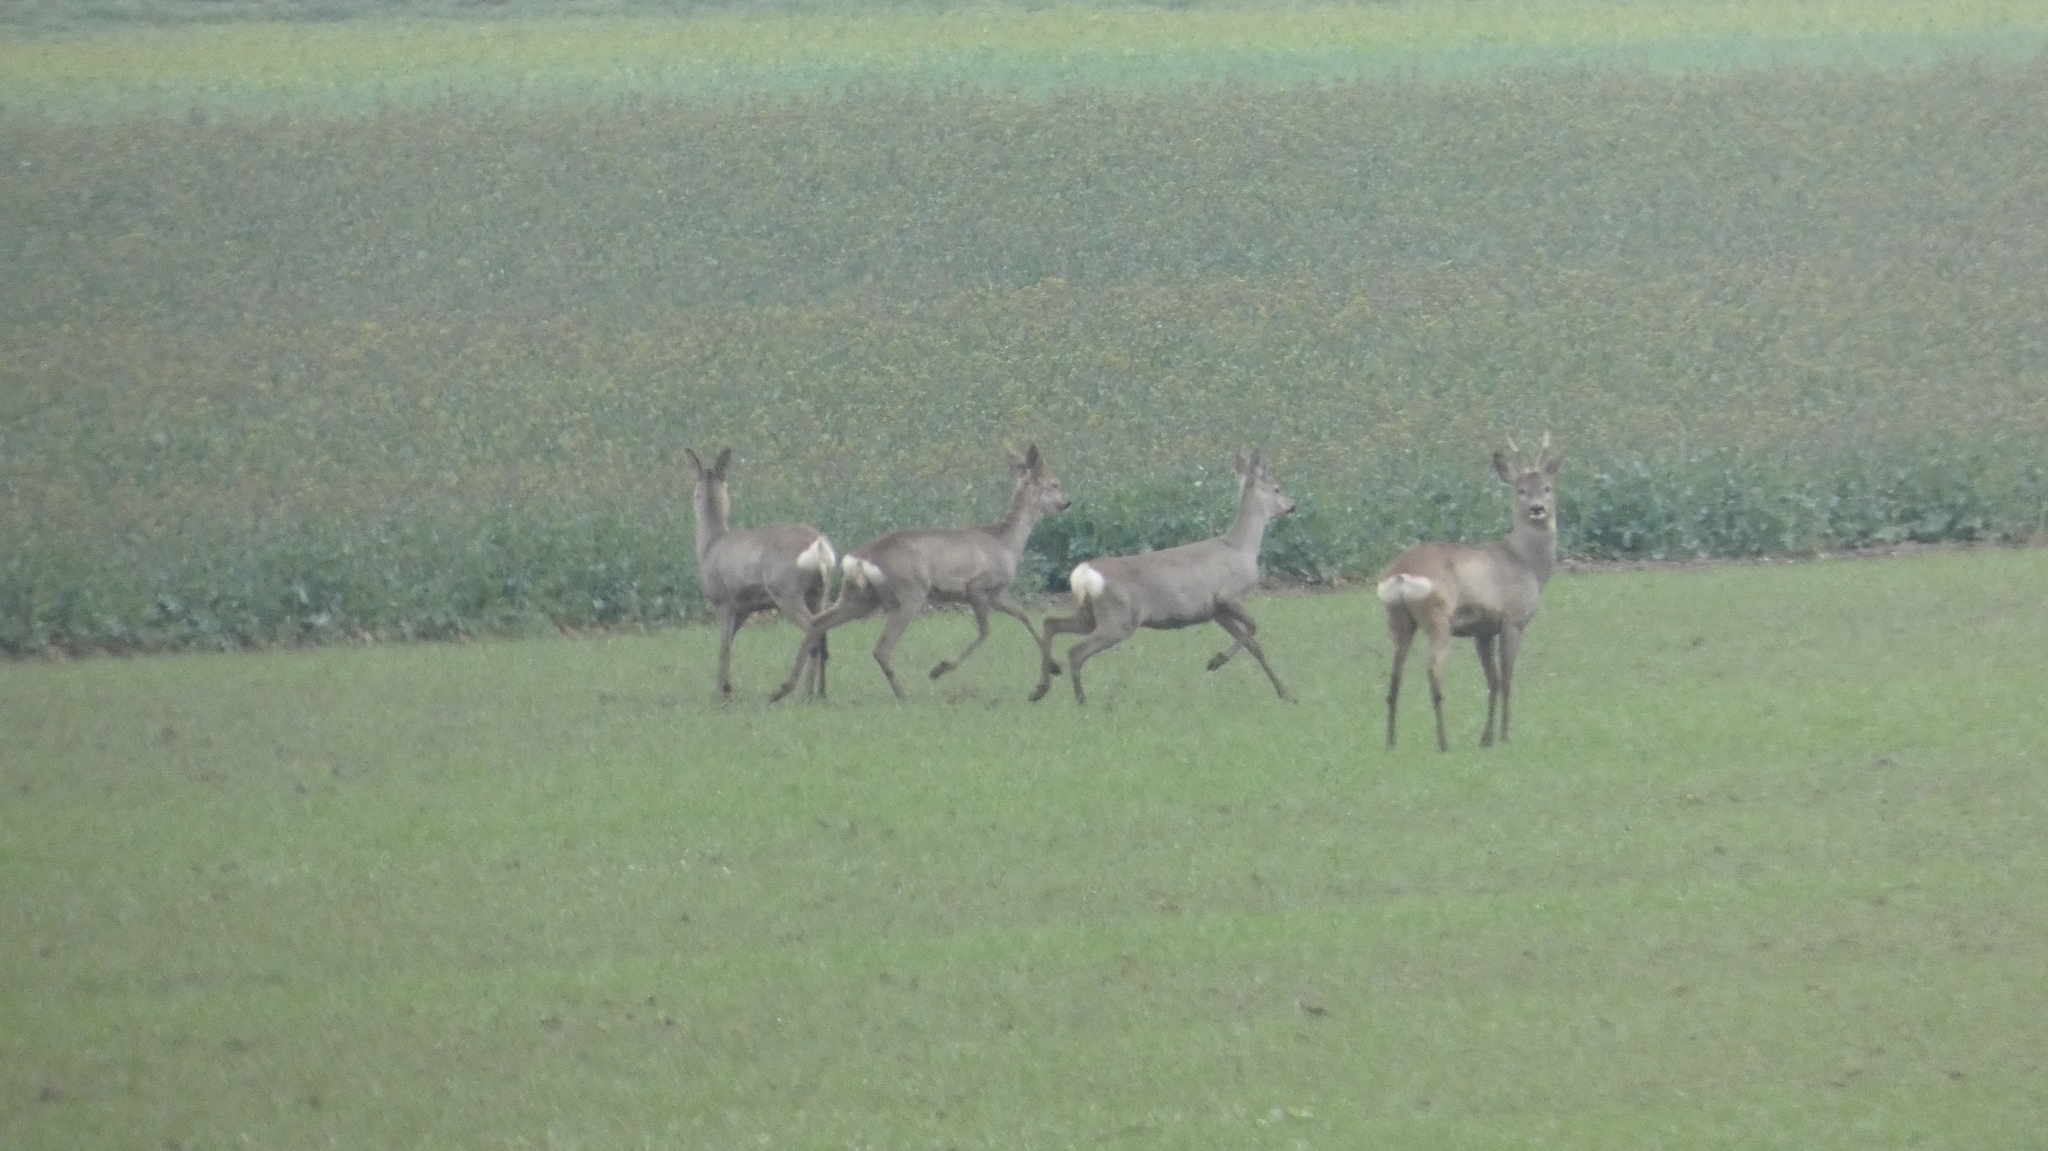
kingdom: Animalia
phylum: Chordata
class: Mammalia
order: Artiodactyla
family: Cervidae
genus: Capreolus
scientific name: Capreolus capreolus
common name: Western roe deer
